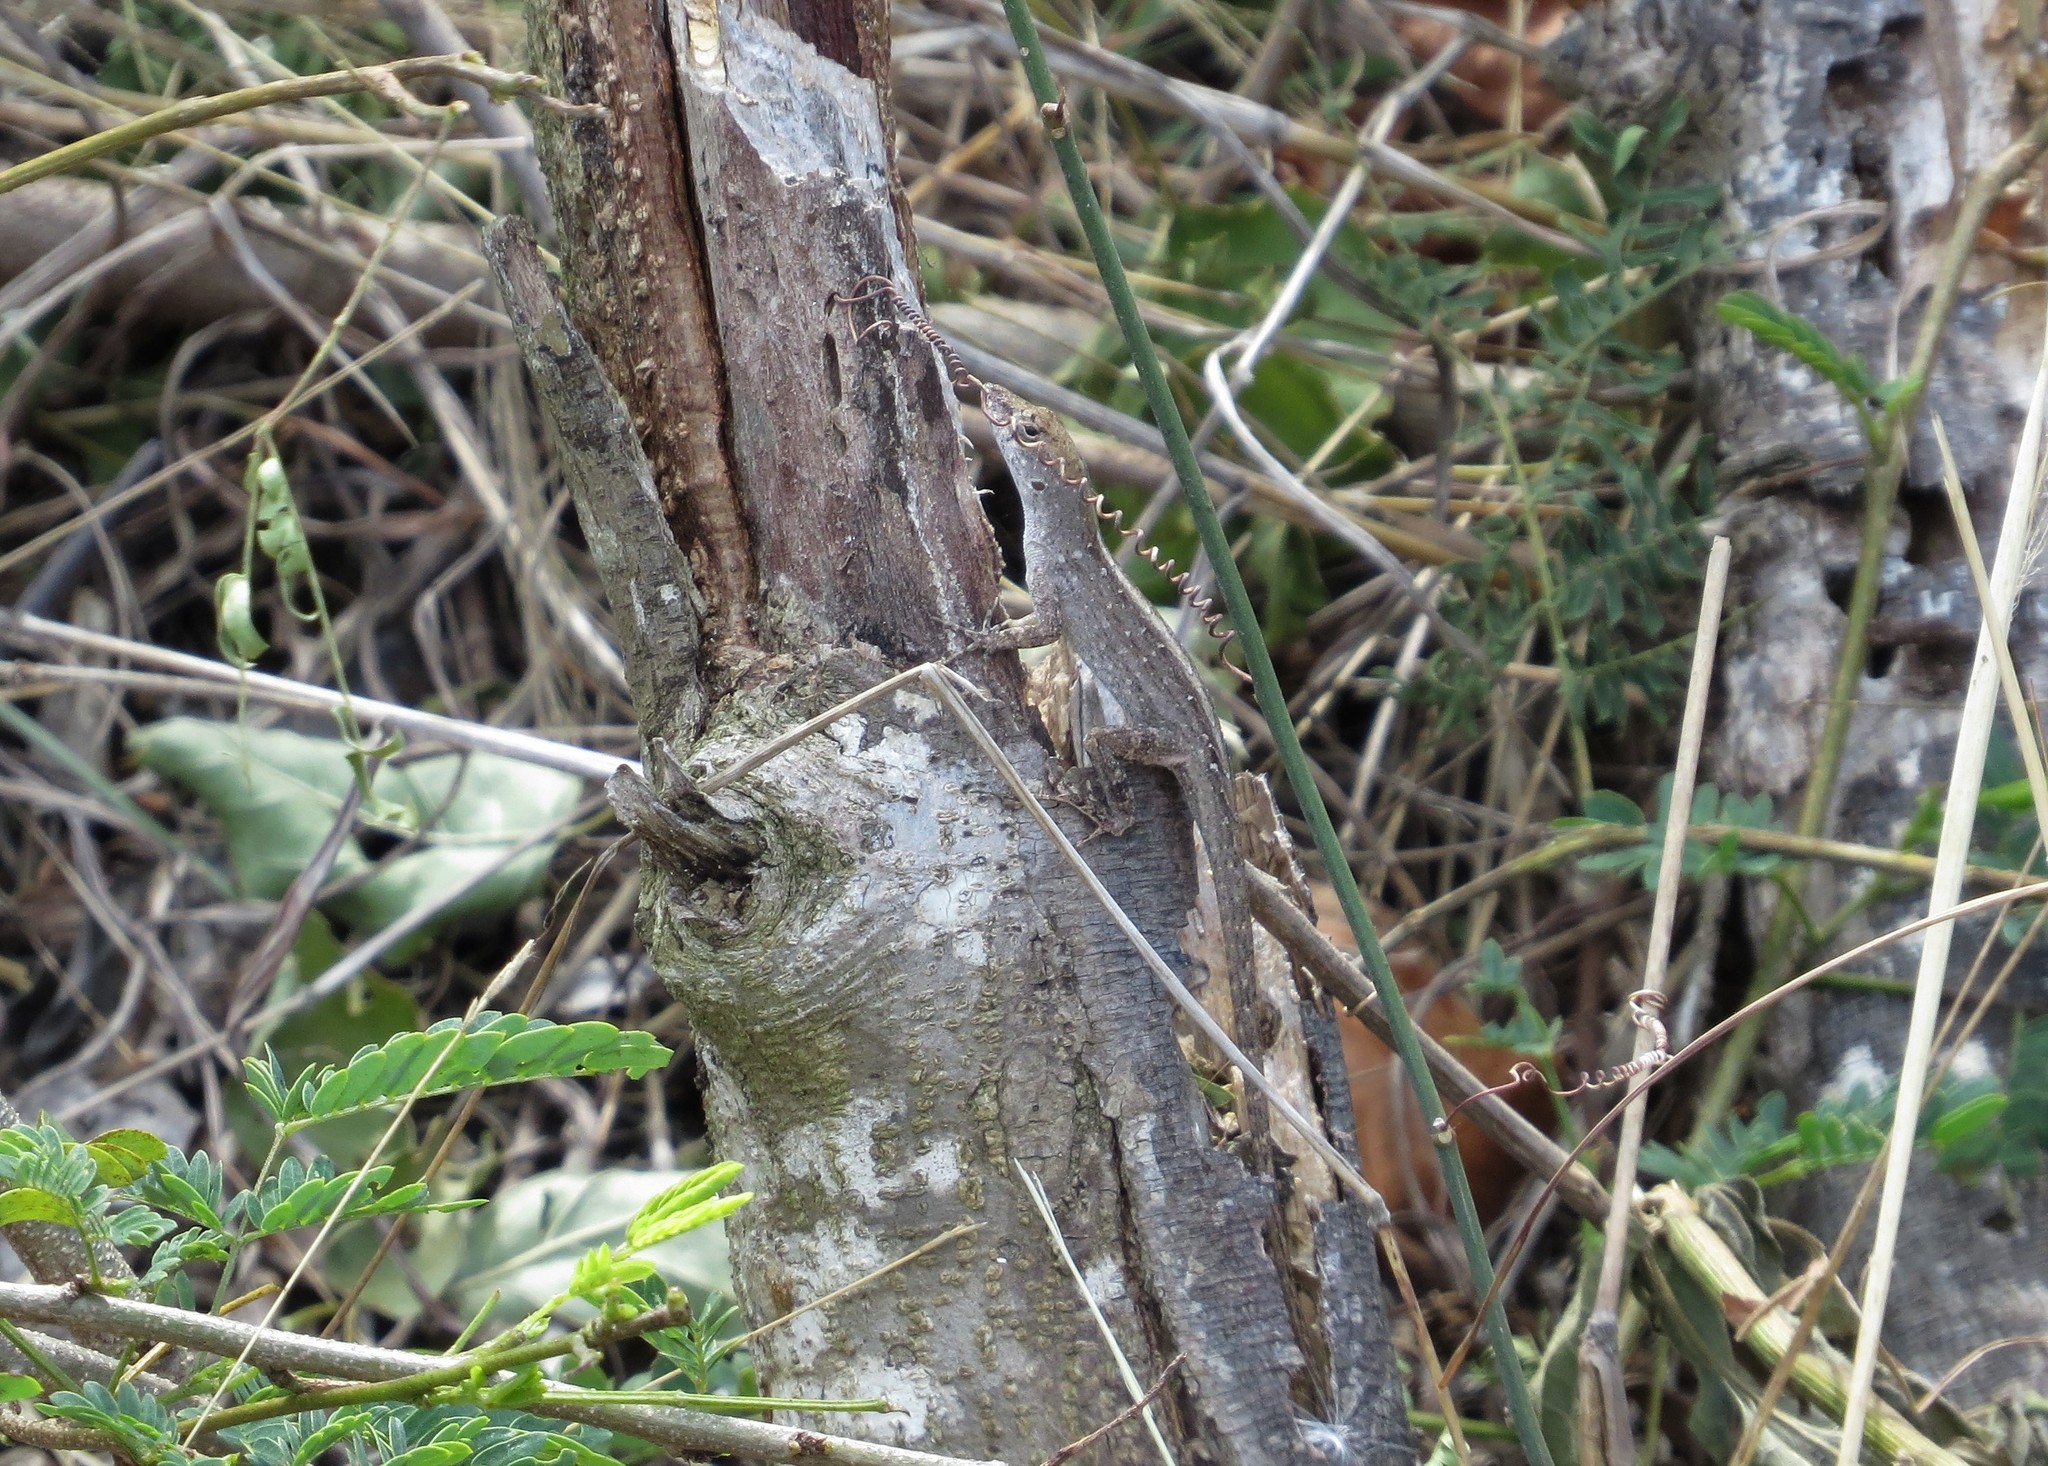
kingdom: Animalia
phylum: Chordata
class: Squamata
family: Dactyloidae
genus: Anolis
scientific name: Anolis sagrei
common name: Brown anole
